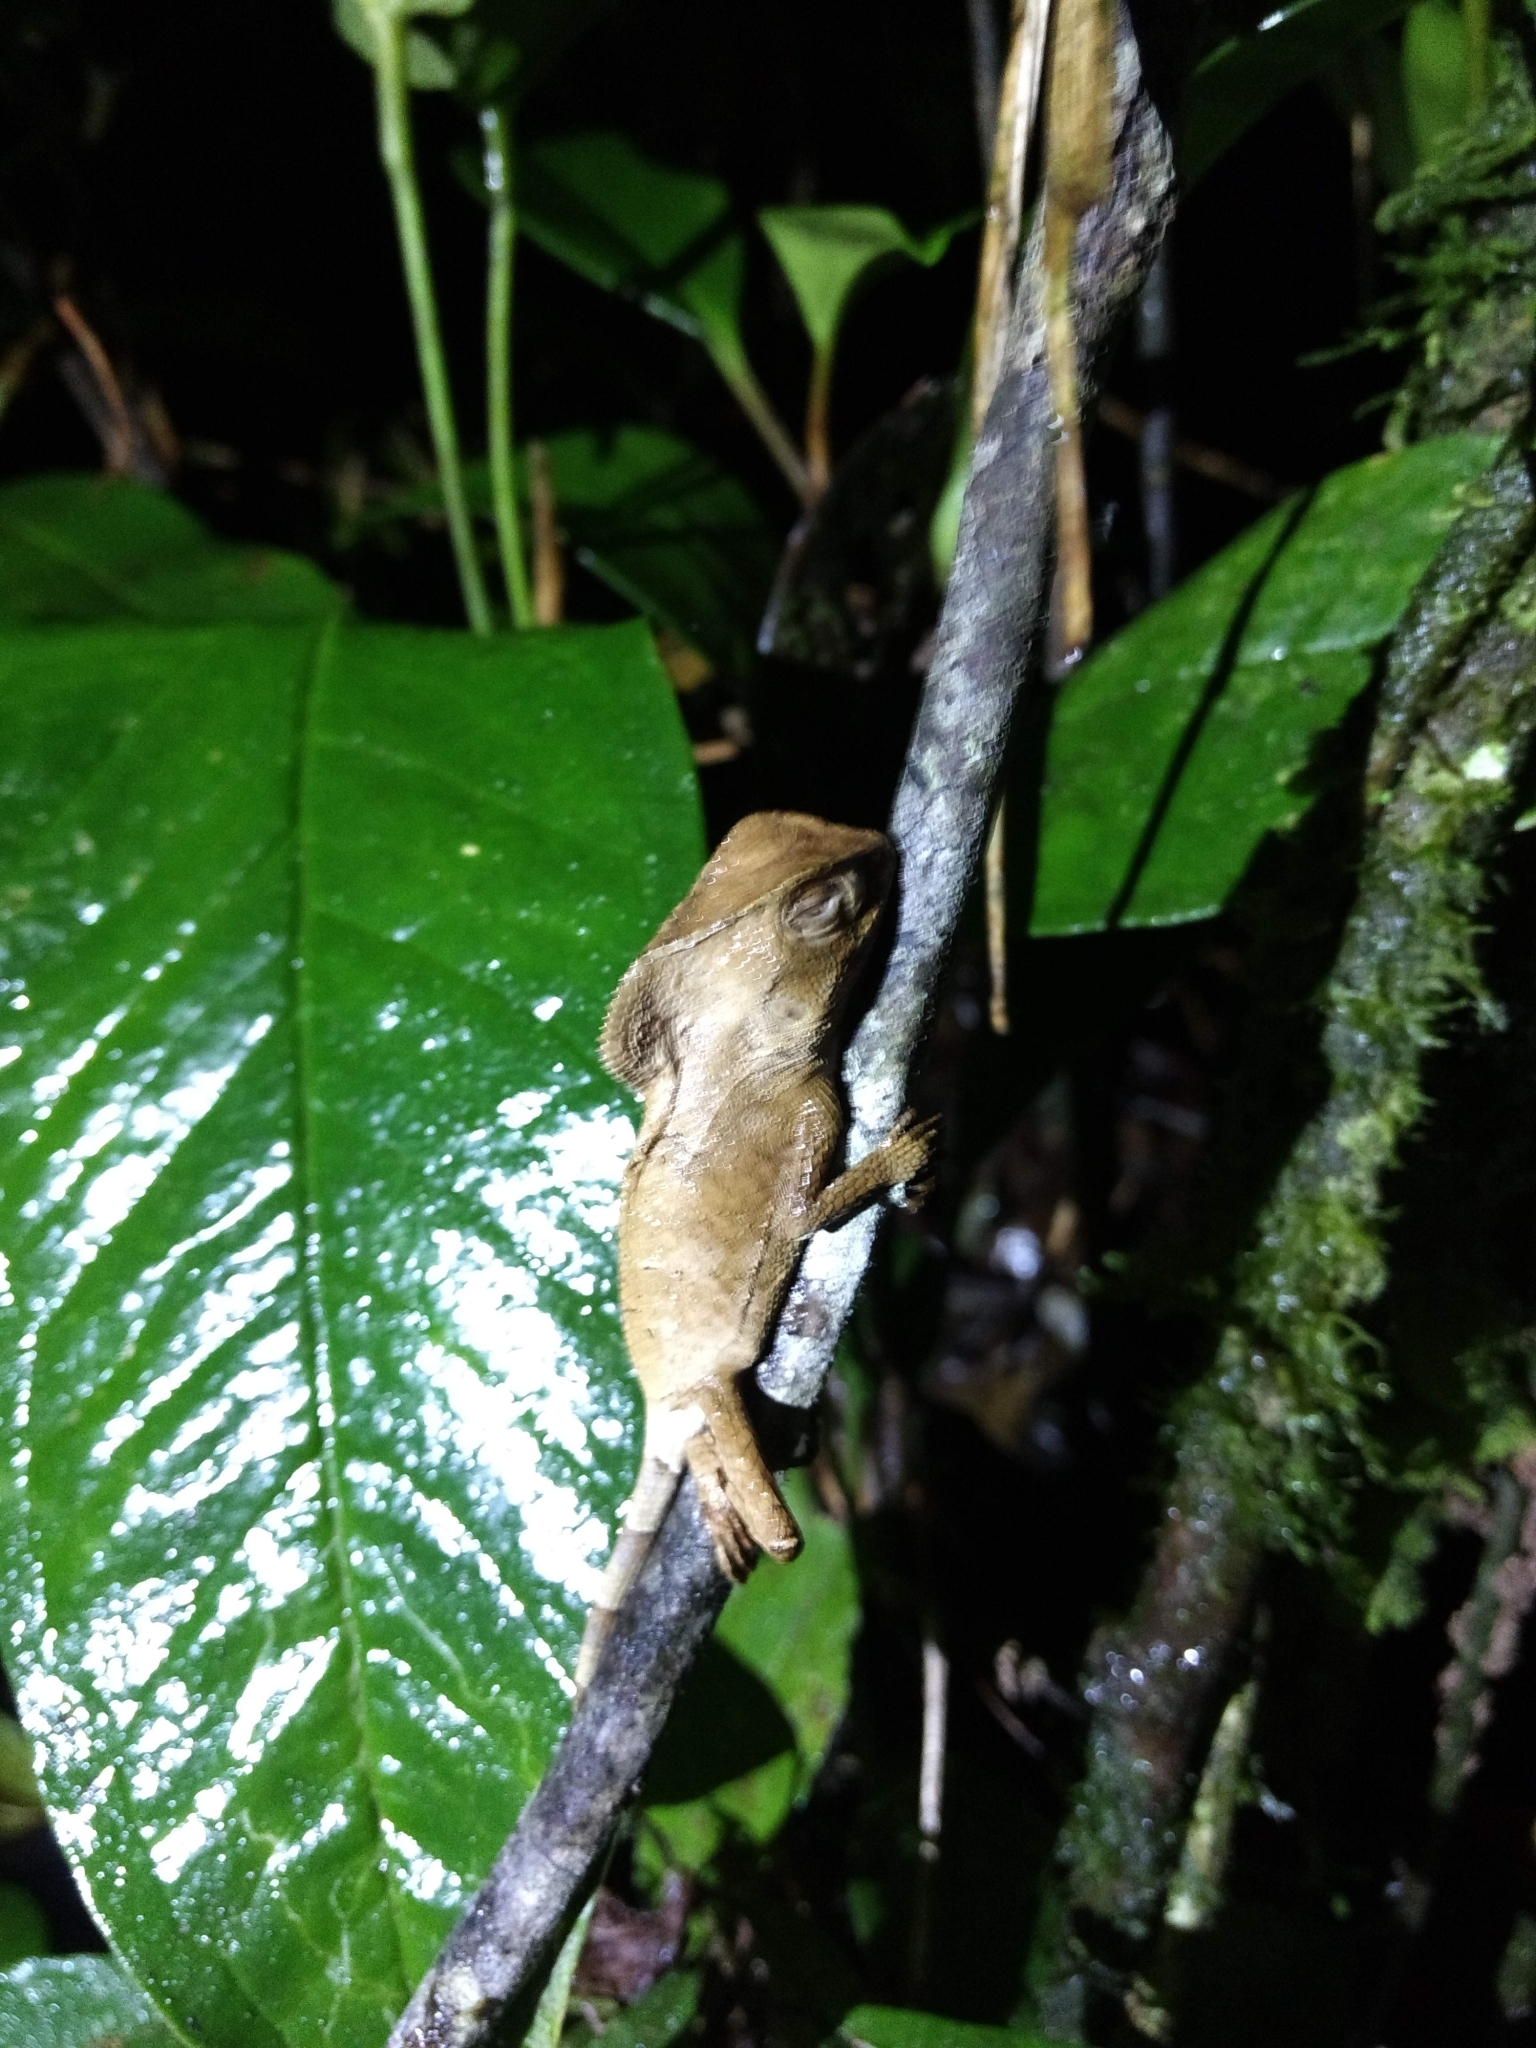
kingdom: Animalia
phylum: Chordata
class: Squamata
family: Corytophanidae
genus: Corytophanes
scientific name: Corytophanes cristatus
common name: Smooth helmeted iguana
